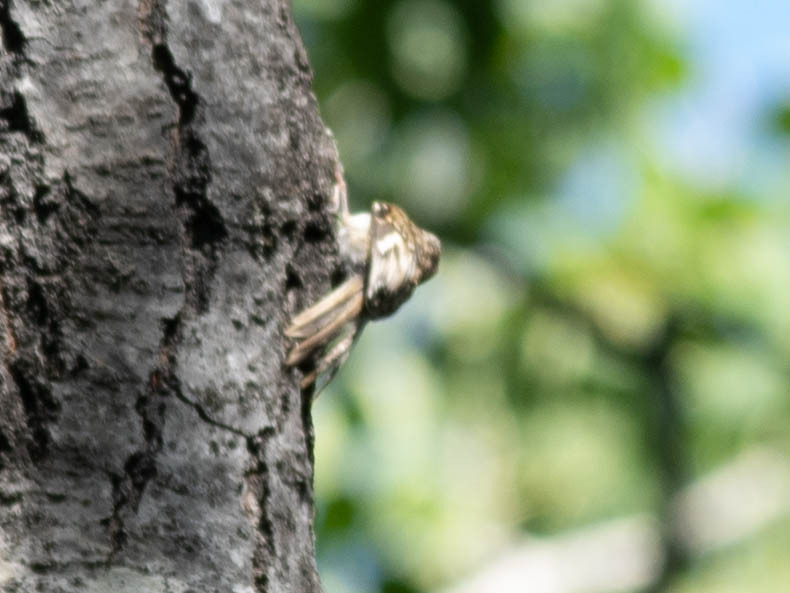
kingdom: Animalia
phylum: Chordata
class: Aves
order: Passeriformes
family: Certhiidae
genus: Certhia
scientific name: Certhia americana
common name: Brown creeper
